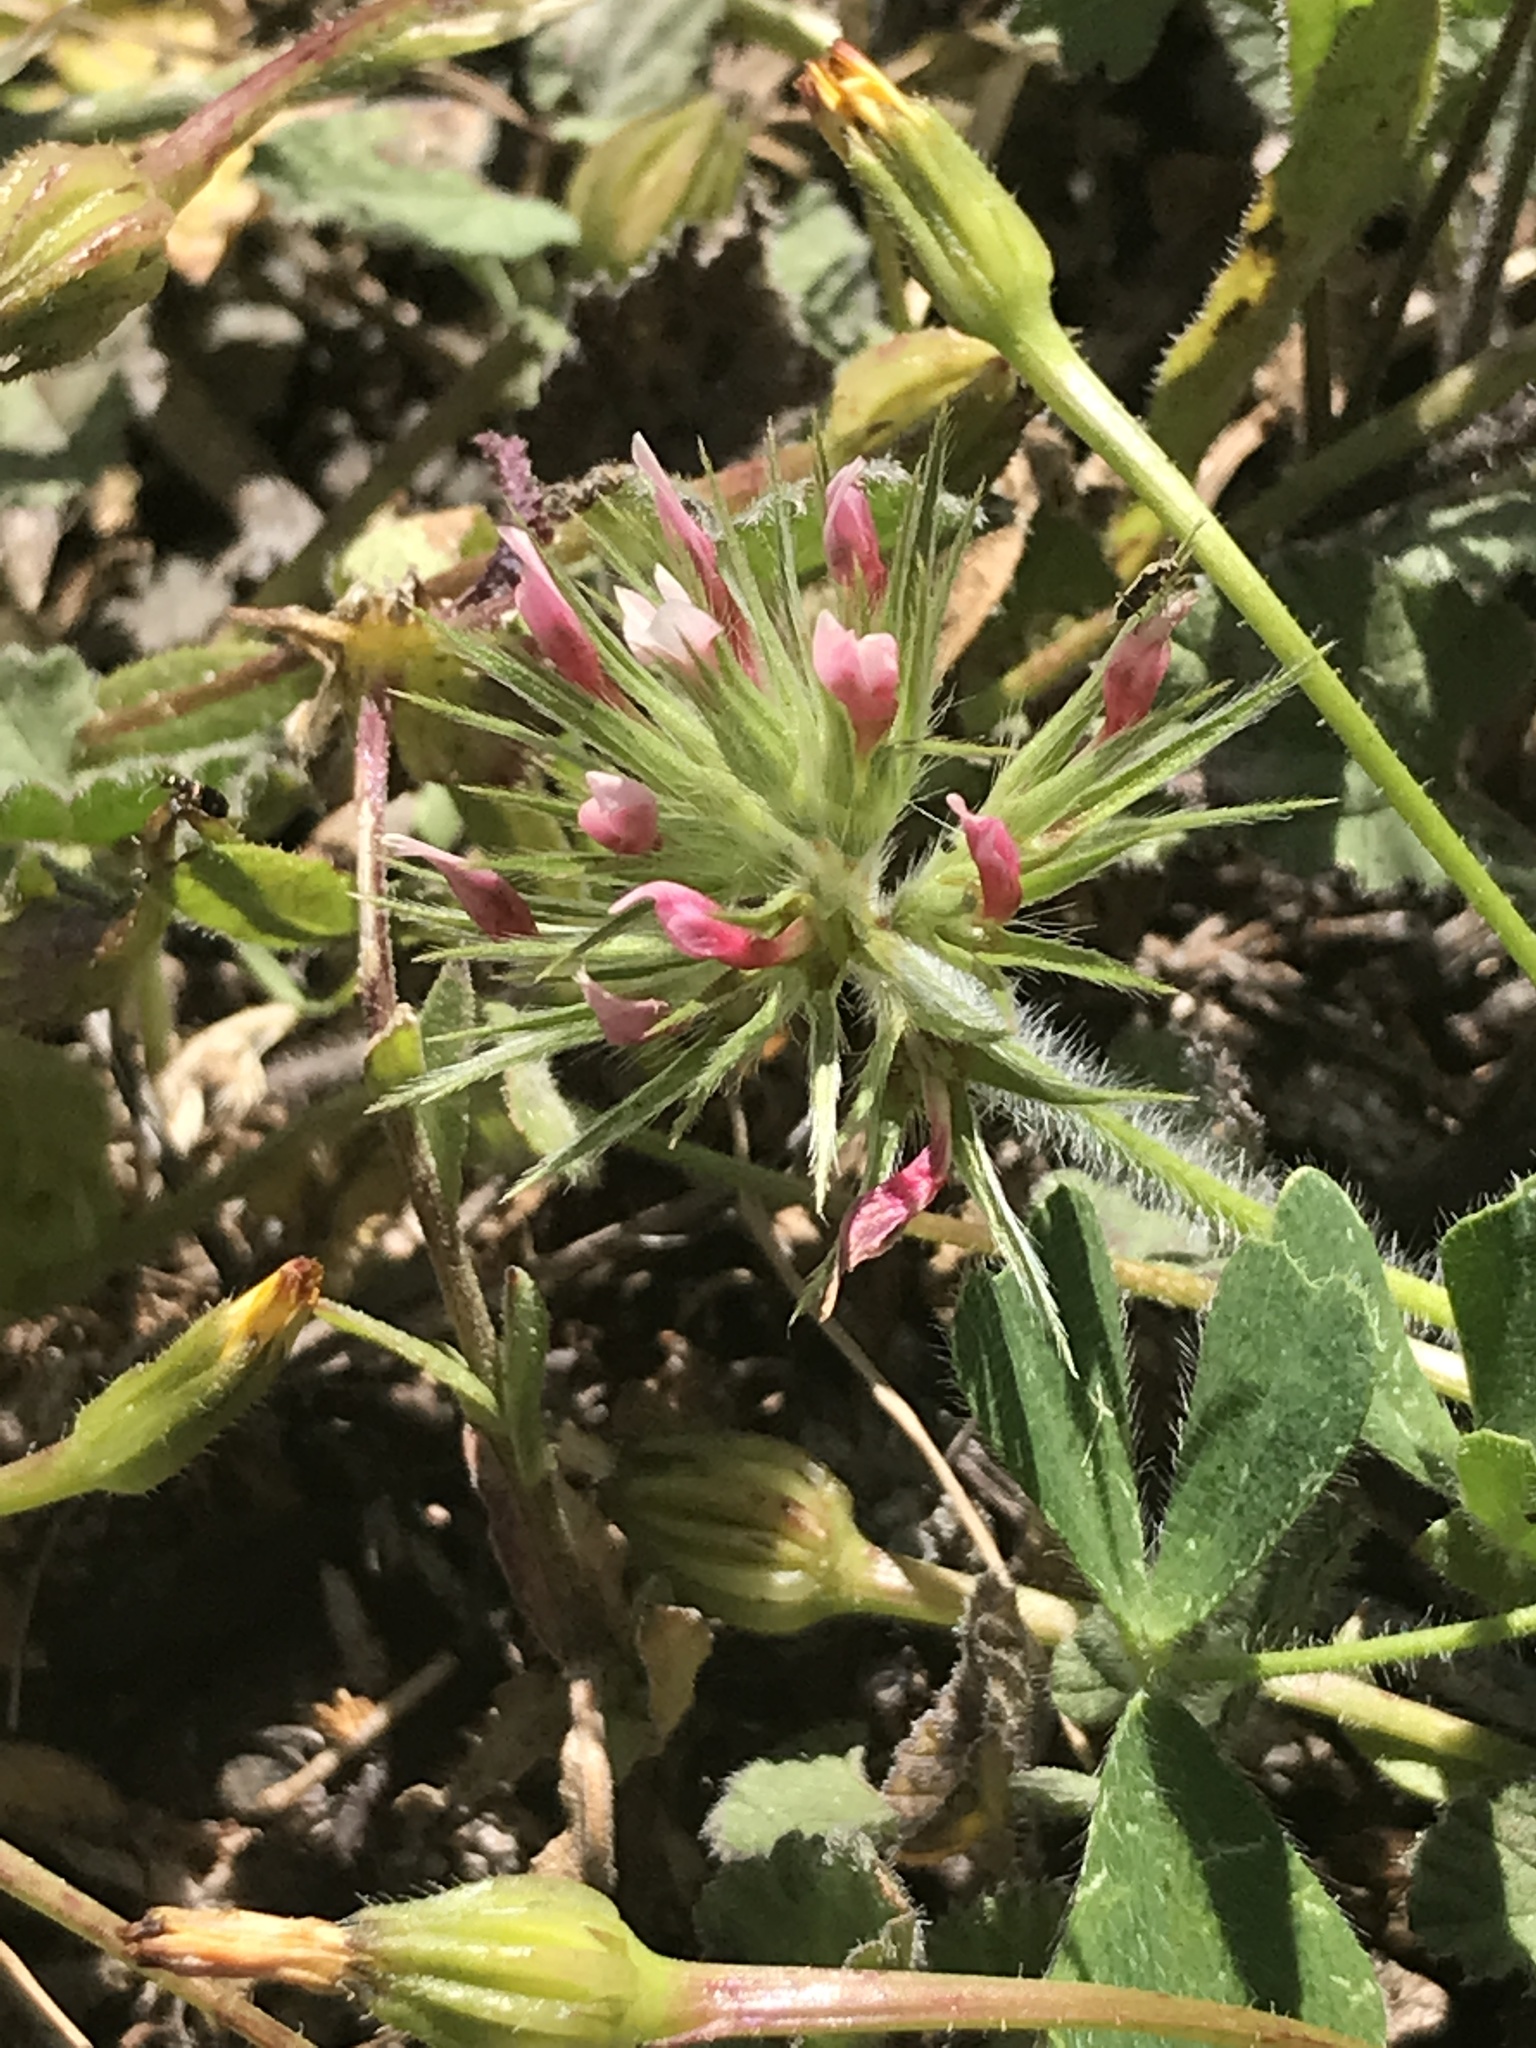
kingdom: Plantae
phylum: Tracheophyta
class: Magnoliopsida
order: Fabales
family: Fabaceae
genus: Trifolium
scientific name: Trifolium stellatum
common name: Starry clover
